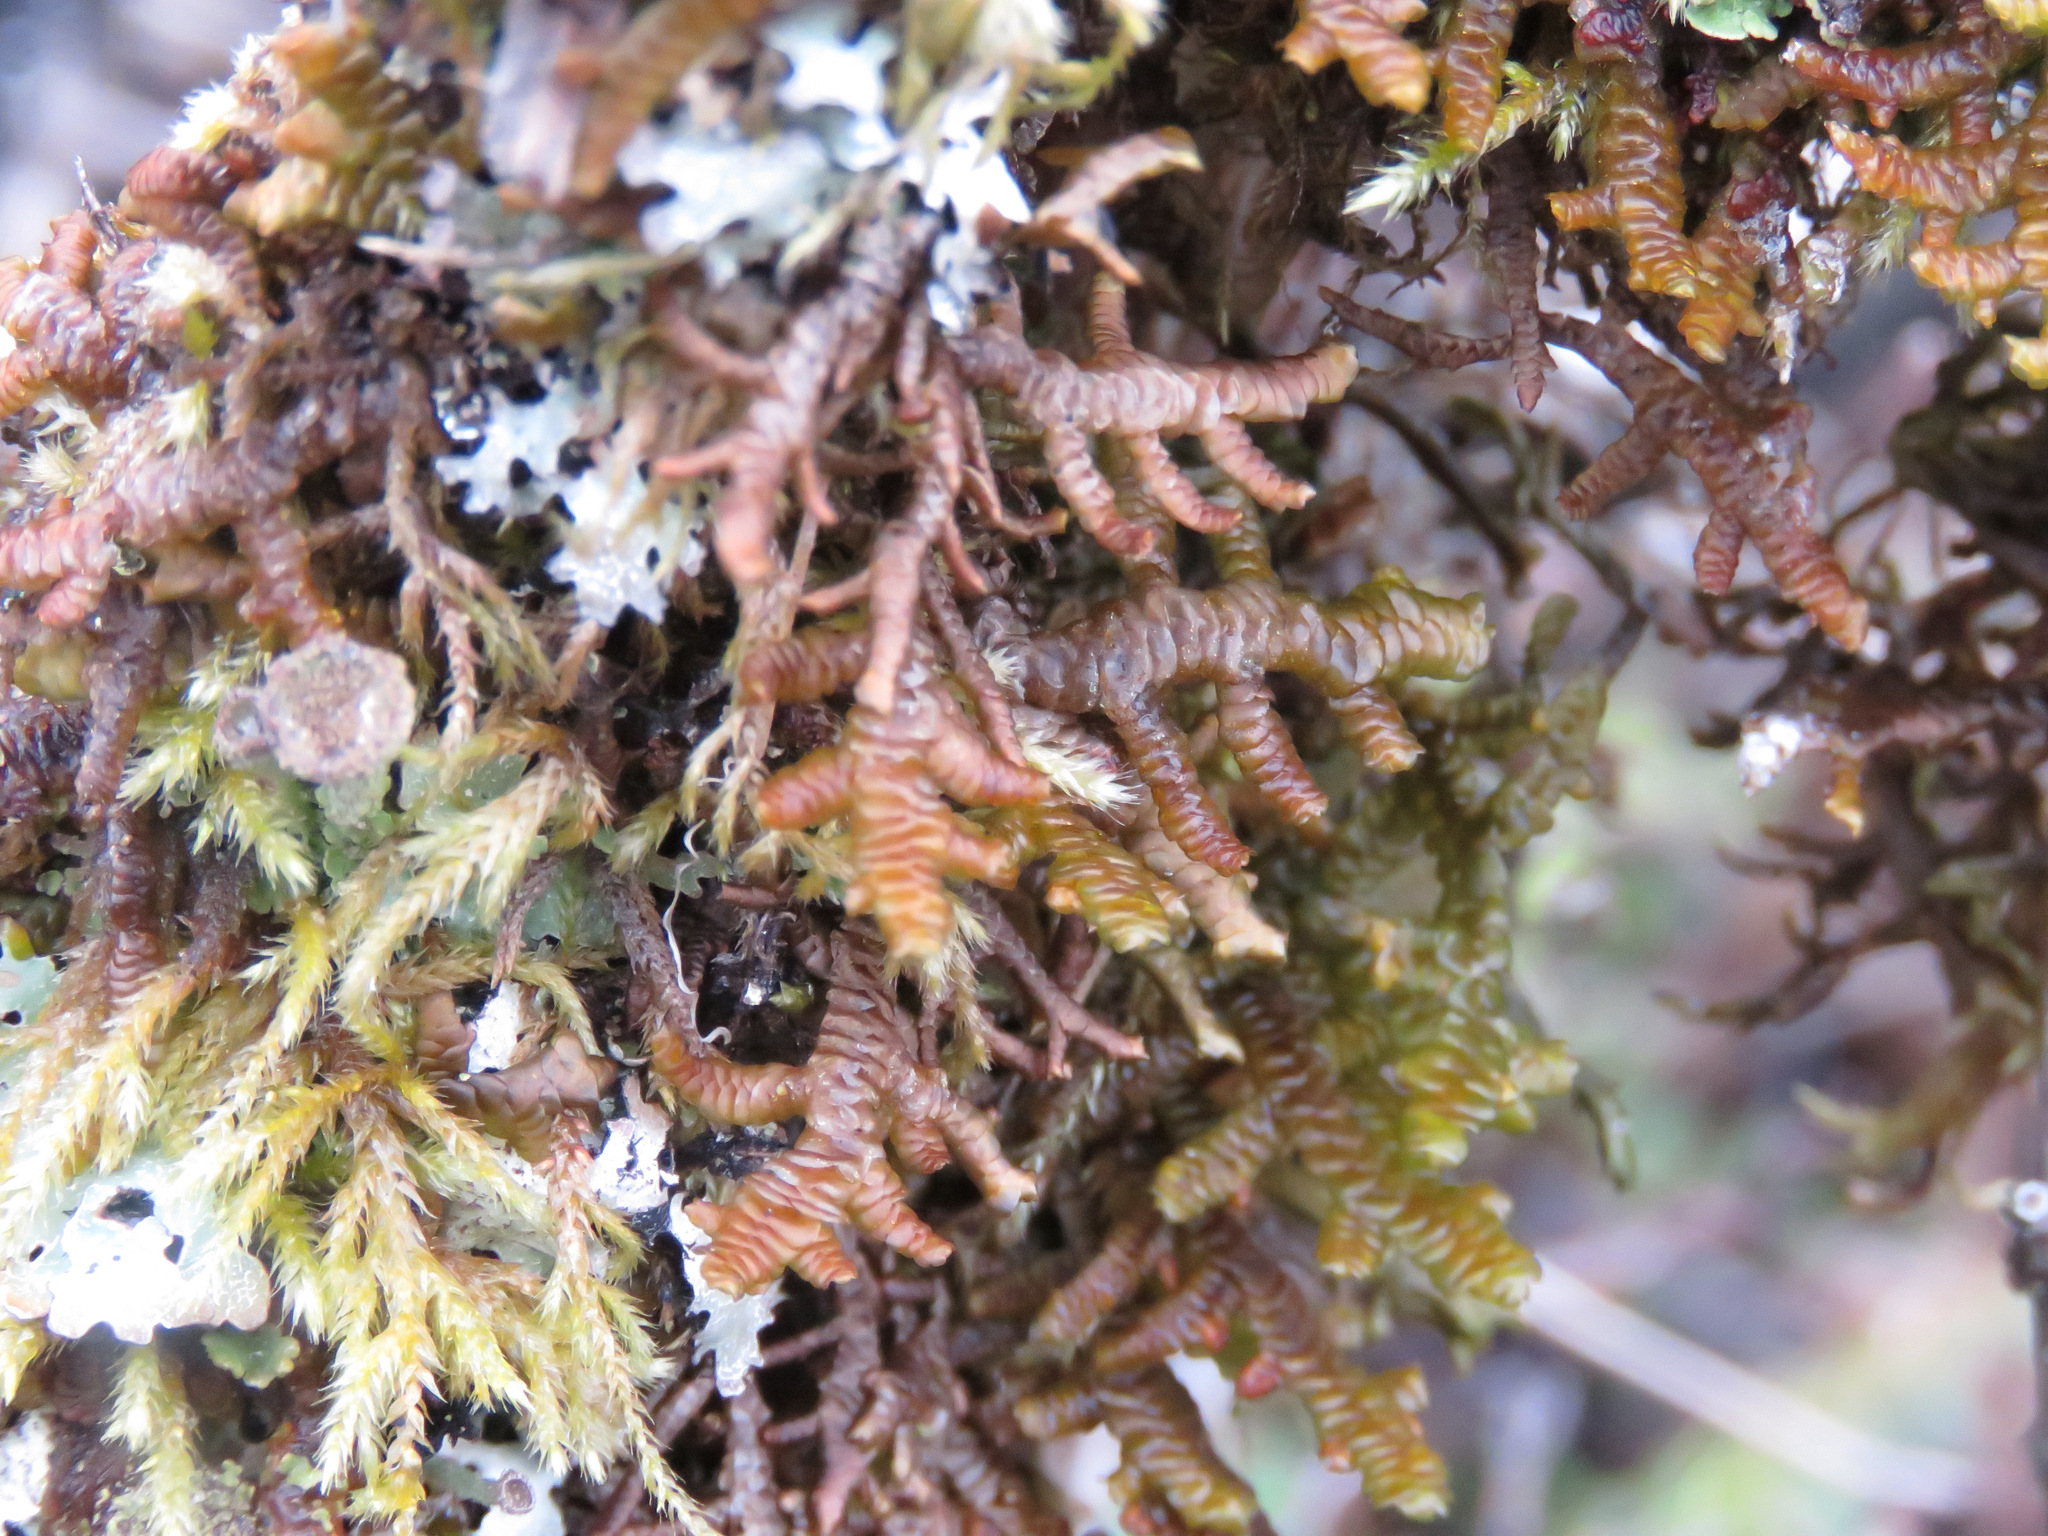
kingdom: Plantae
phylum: Marchantiophyta
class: Jungermanniopsida
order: Porellales
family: Porellaceae
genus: Porella
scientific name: Porella navicularis
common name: Tree ruffle liverwort
